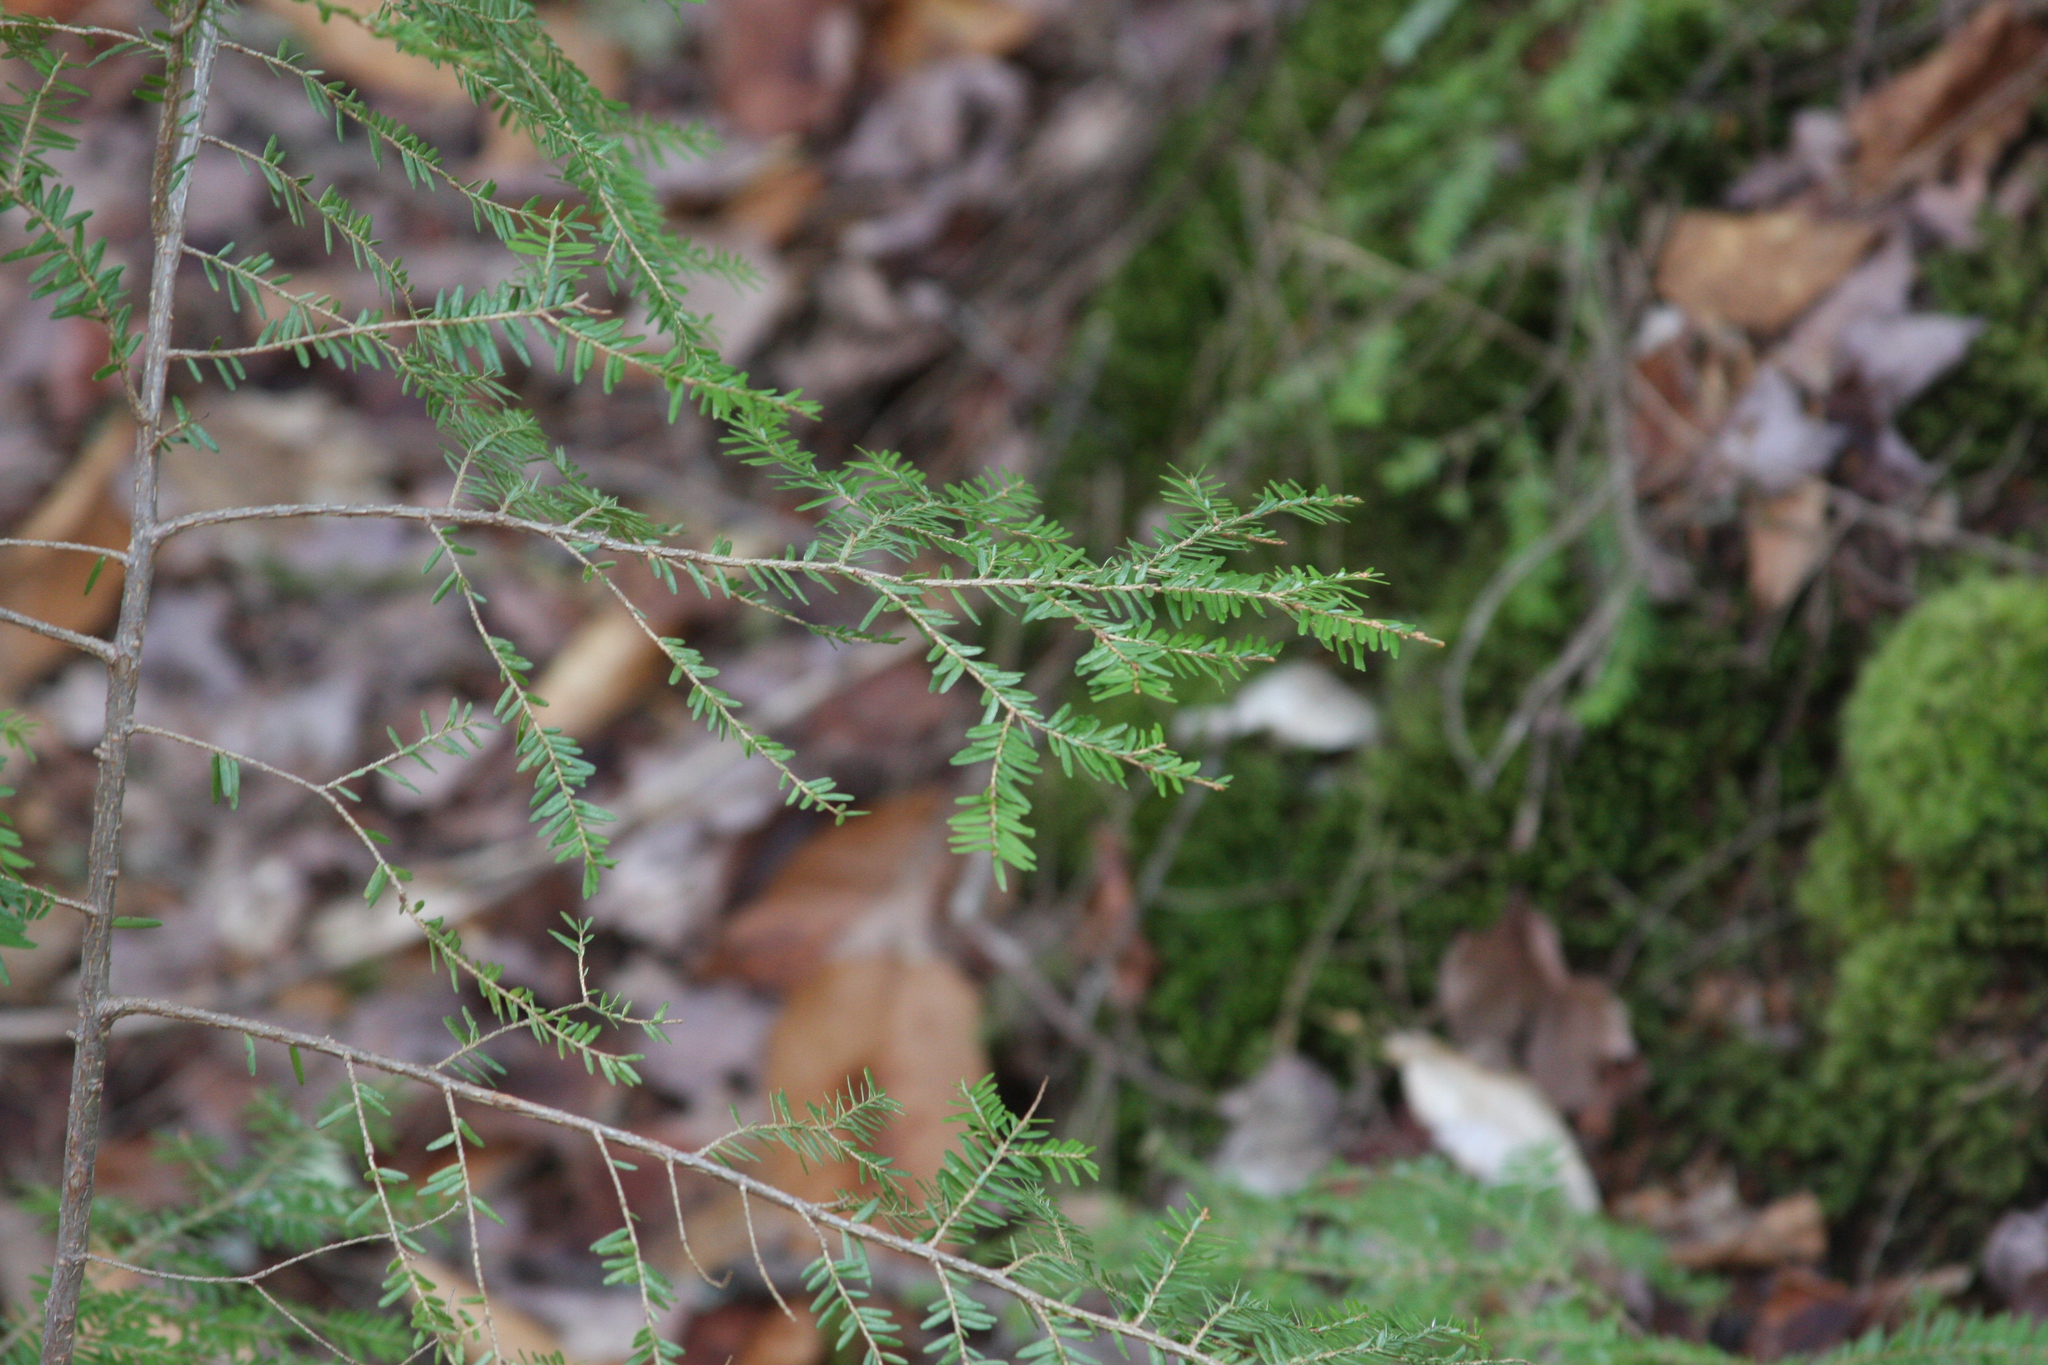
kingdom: Plantae
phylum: Tracheophyta
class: Pinopsida
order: Pinales
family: Pinaceae
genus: Tsuga
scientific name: Tsuga canadensis
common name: Eastern hemlock
